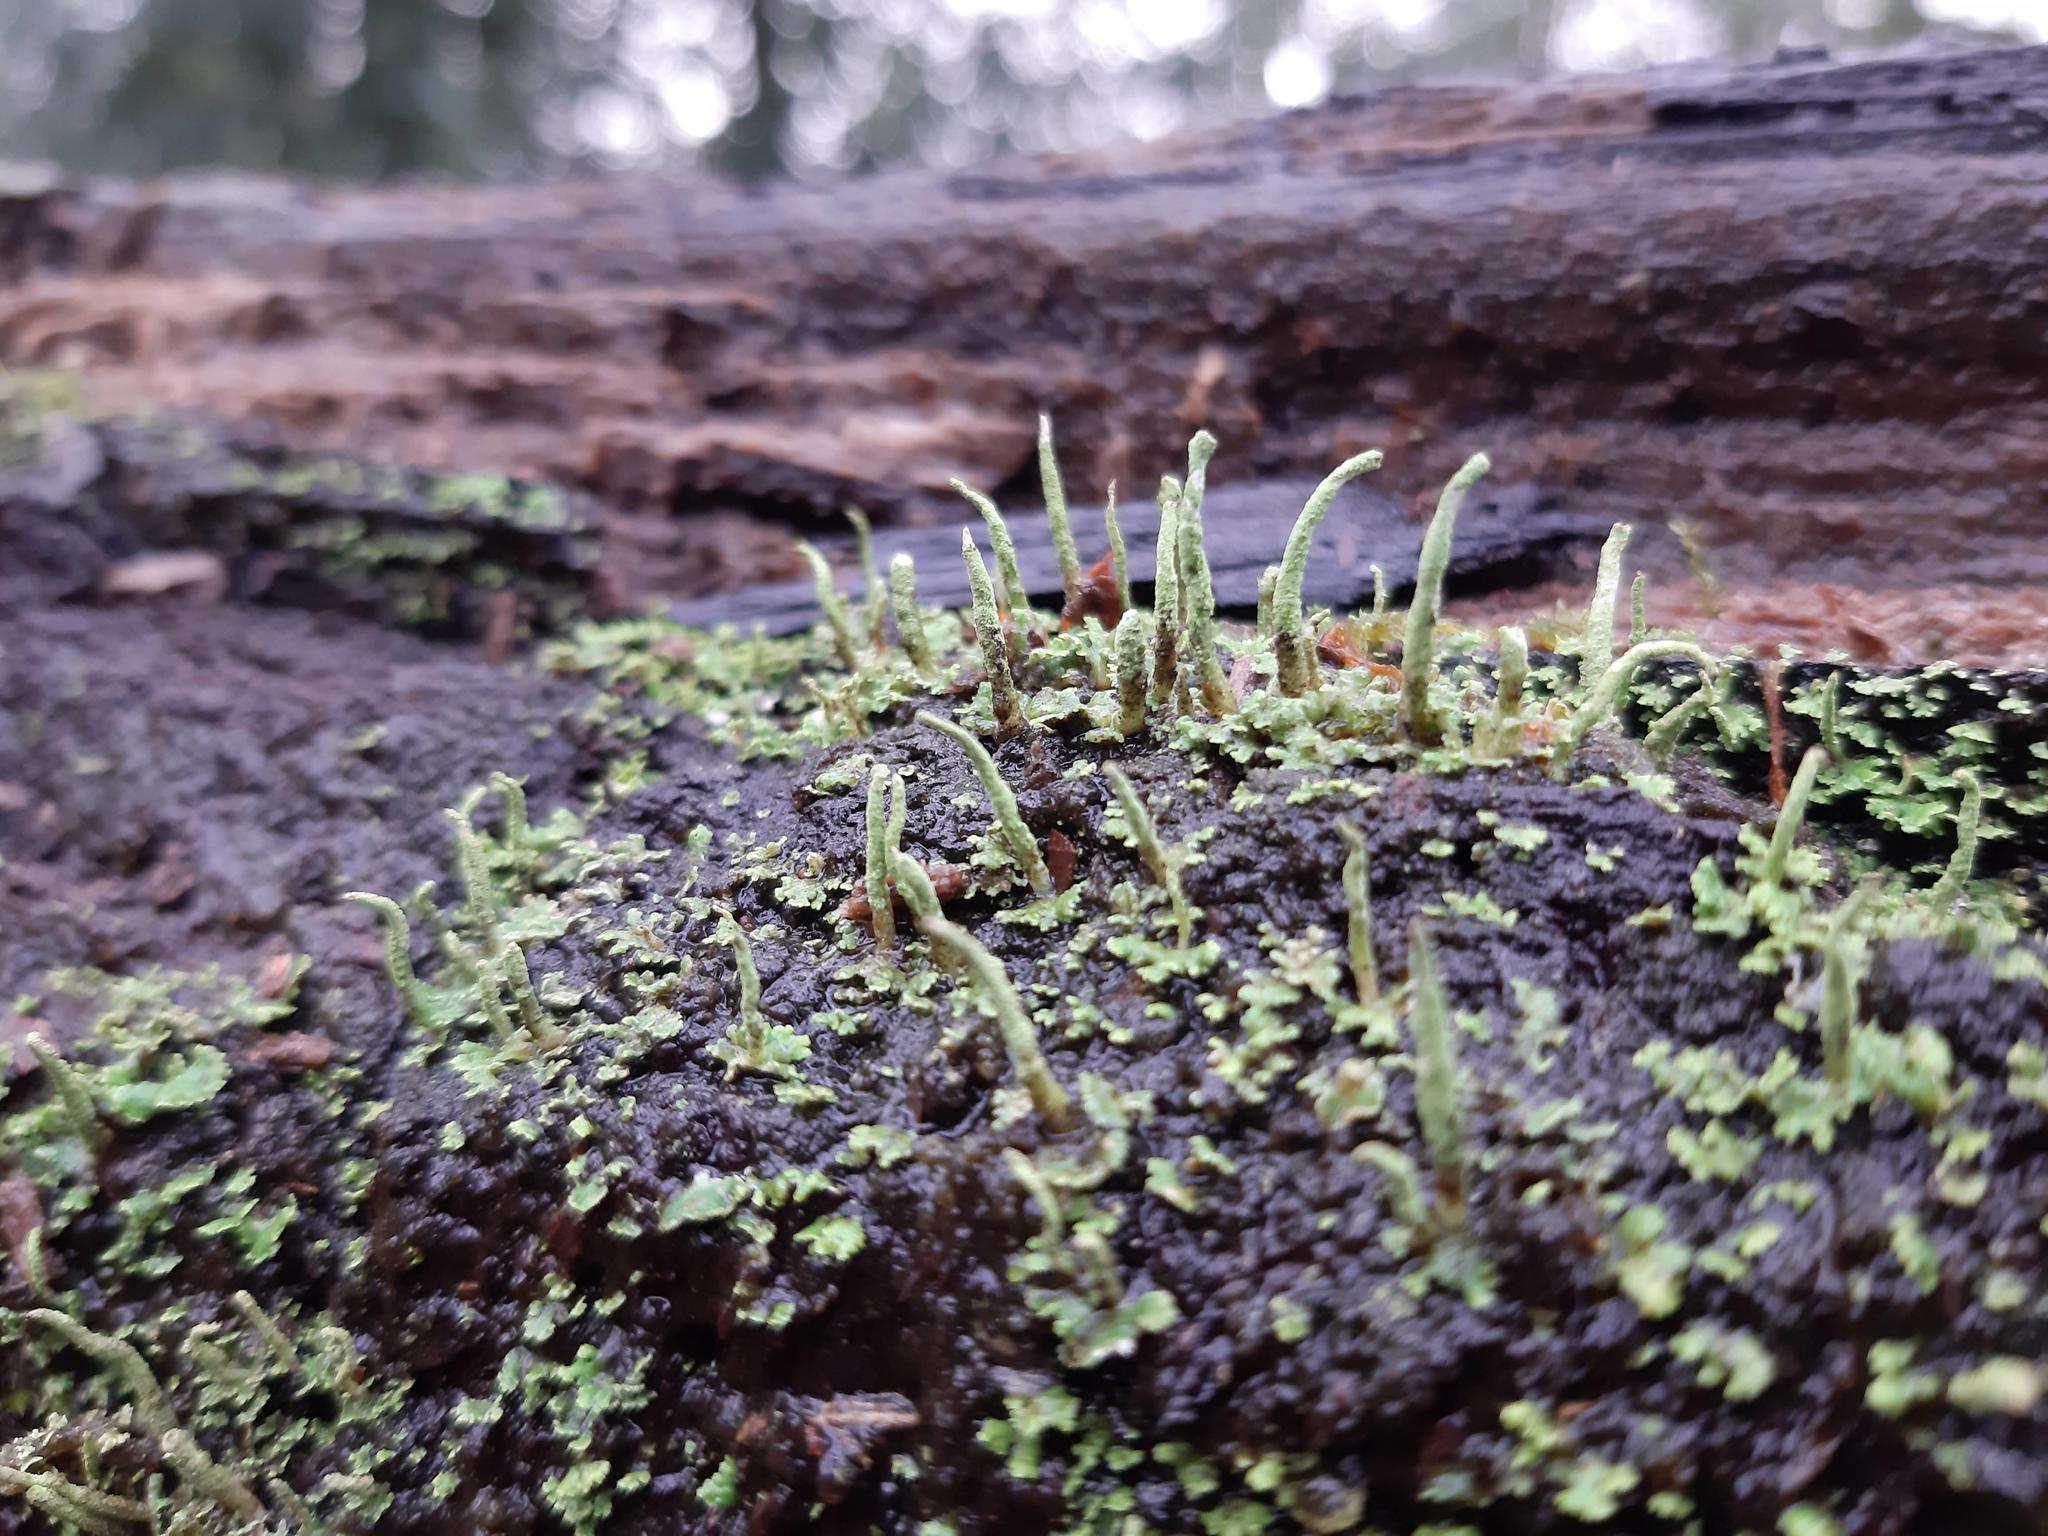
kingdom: Fungi
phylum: Ascomycota
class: Lecanoromycetes
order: Lecanorales
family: Cladoniaceae
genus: Cladonia
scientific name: Cladonia coniocraea
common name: Common powderhorn
